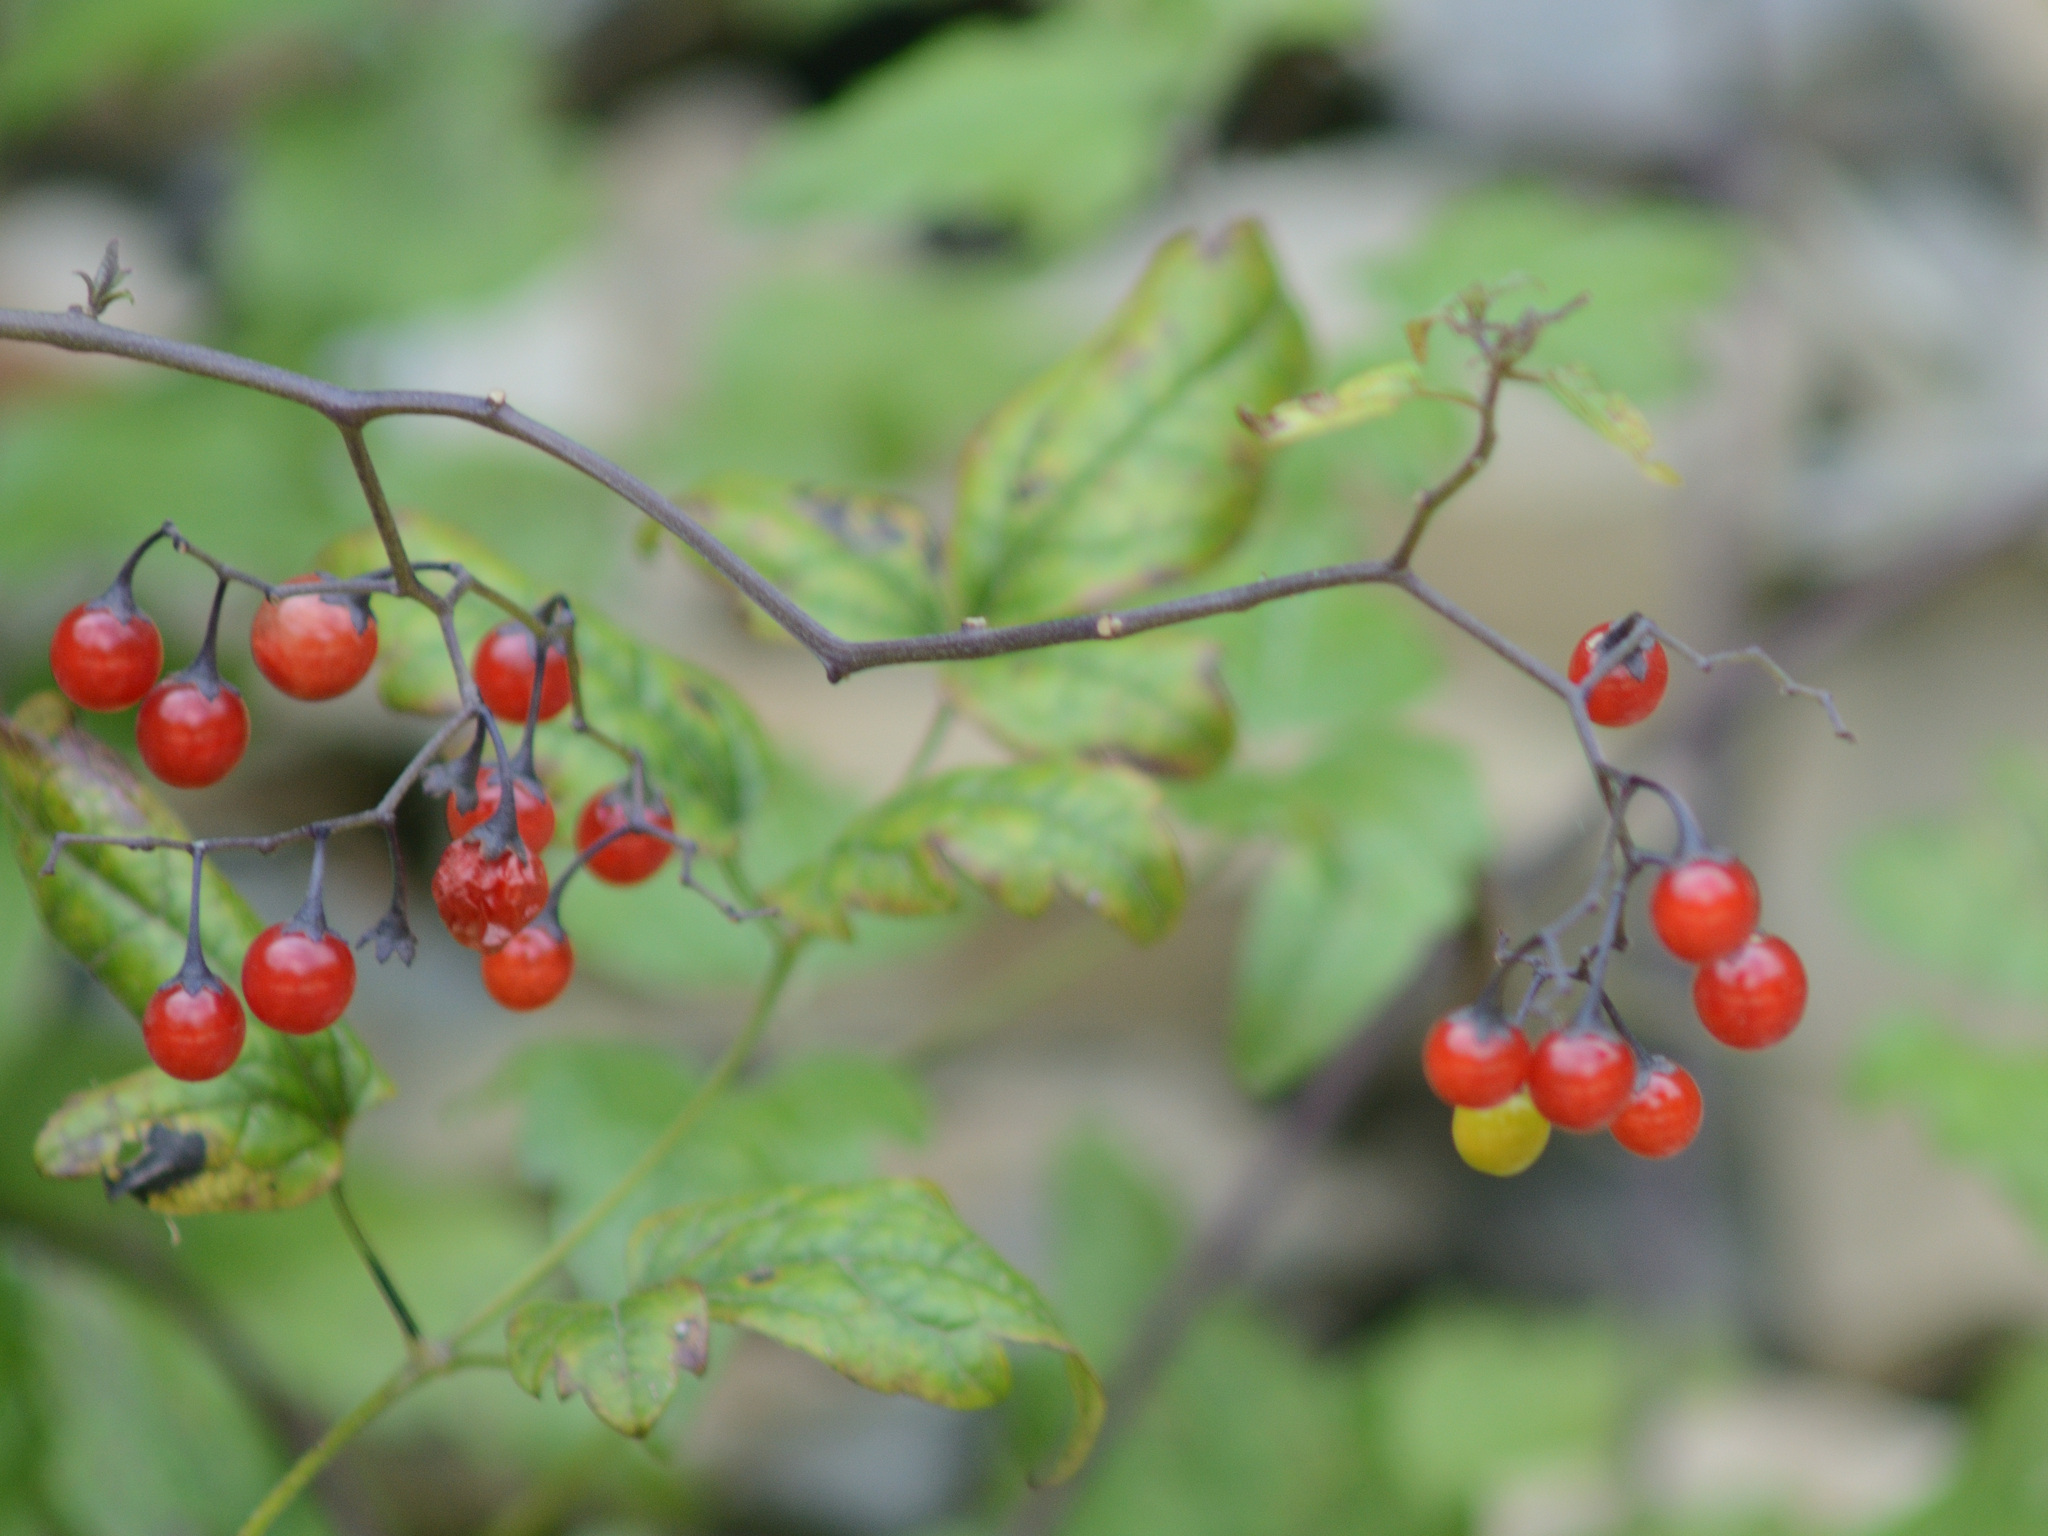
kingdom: Plantae
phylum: Tracheophyta
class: Magnoliopsida
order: Solanales
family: Solanaceae
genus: Solanum
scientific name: Solanum dulcamara
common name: Climbing nightshade
